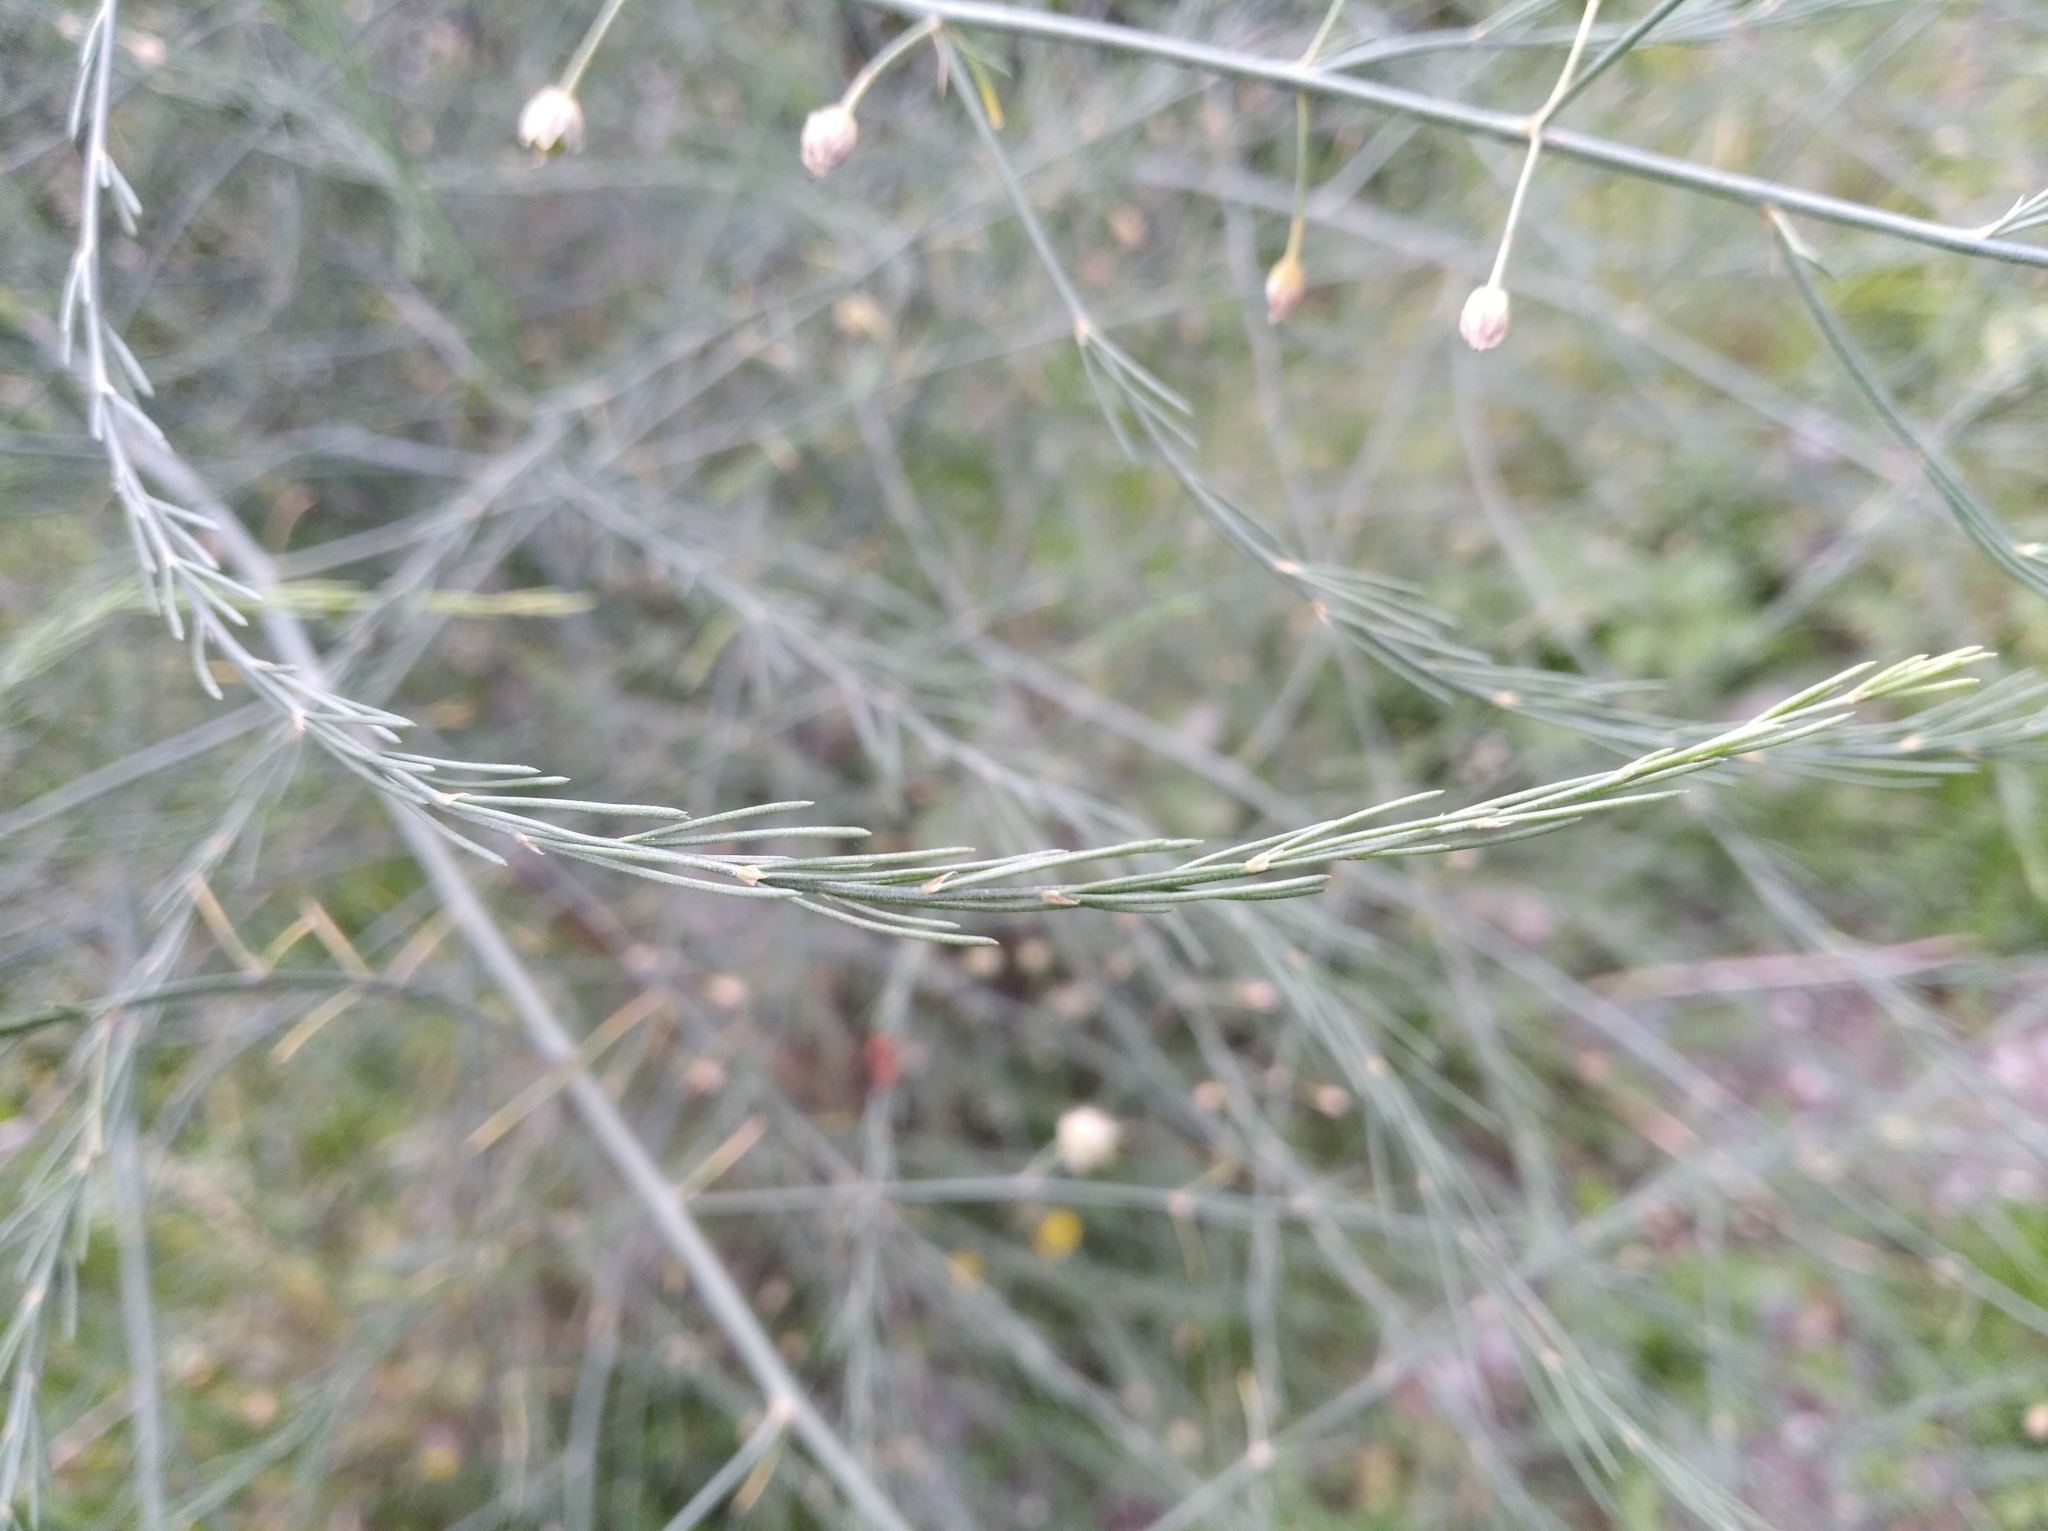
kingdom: Plantae
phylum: Tracheophyta
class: Liliopsida
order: Asparagales
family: Asparagaceae
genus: Asparagus
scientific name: Asparagus officinalis
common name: Garden asparagus
